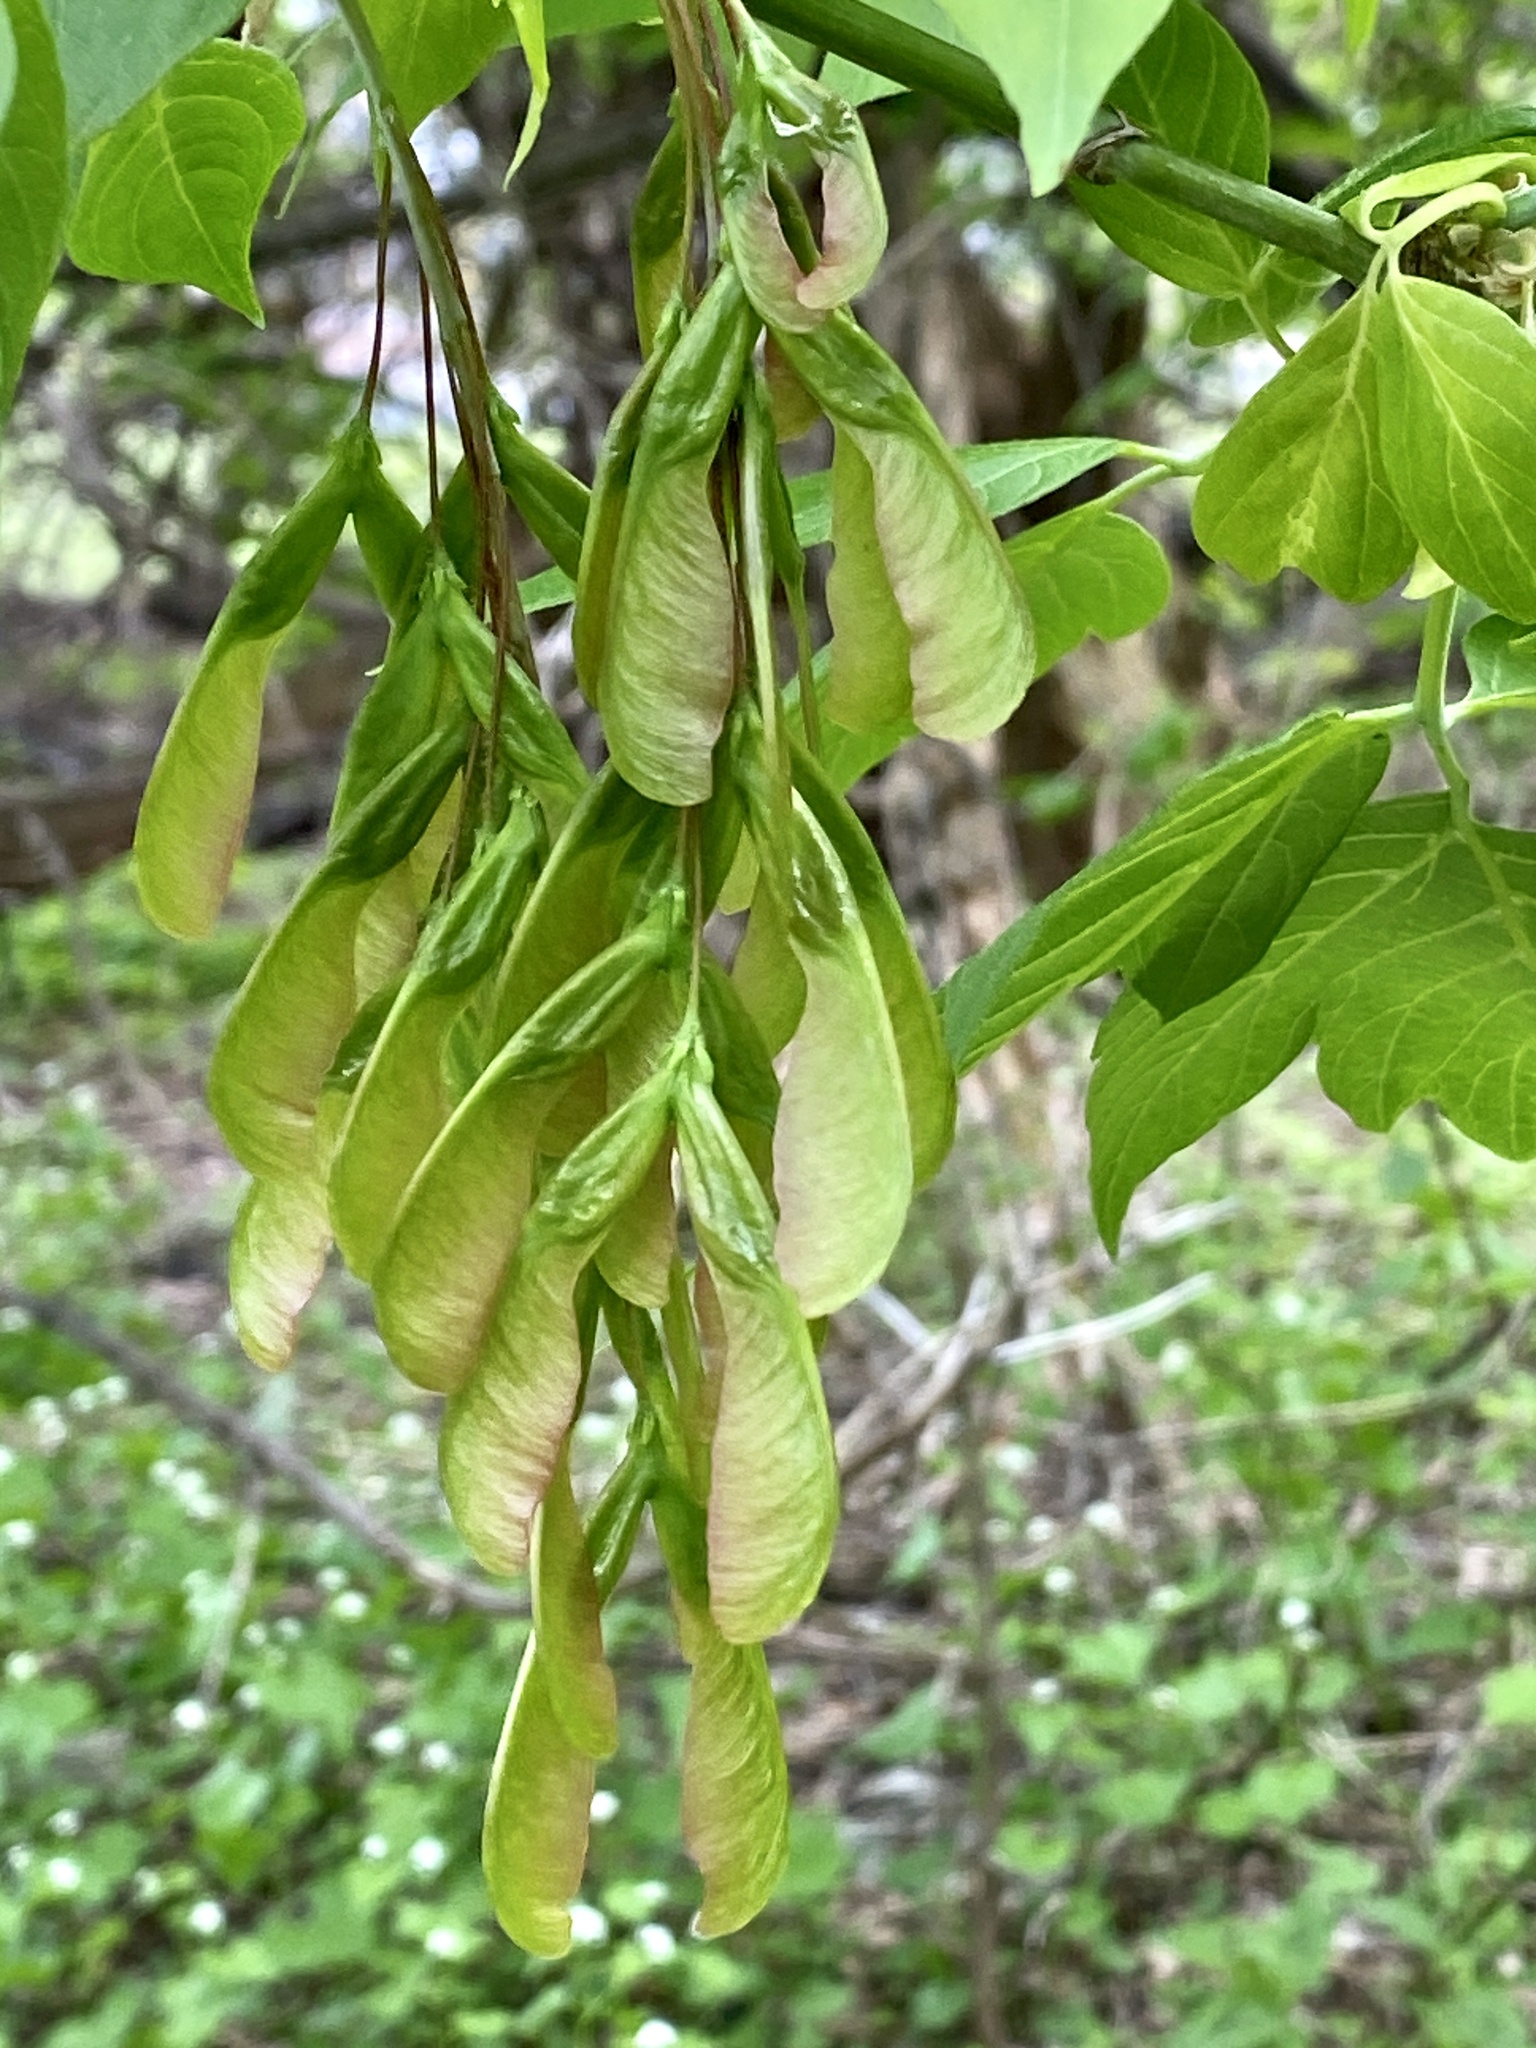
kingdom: Plantae
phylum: Tracheophyta
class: Magnoliopsida
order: Sapindales
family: Sapindaceae
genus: Acer
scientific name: Acer negundo
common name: Ashleaf maple
